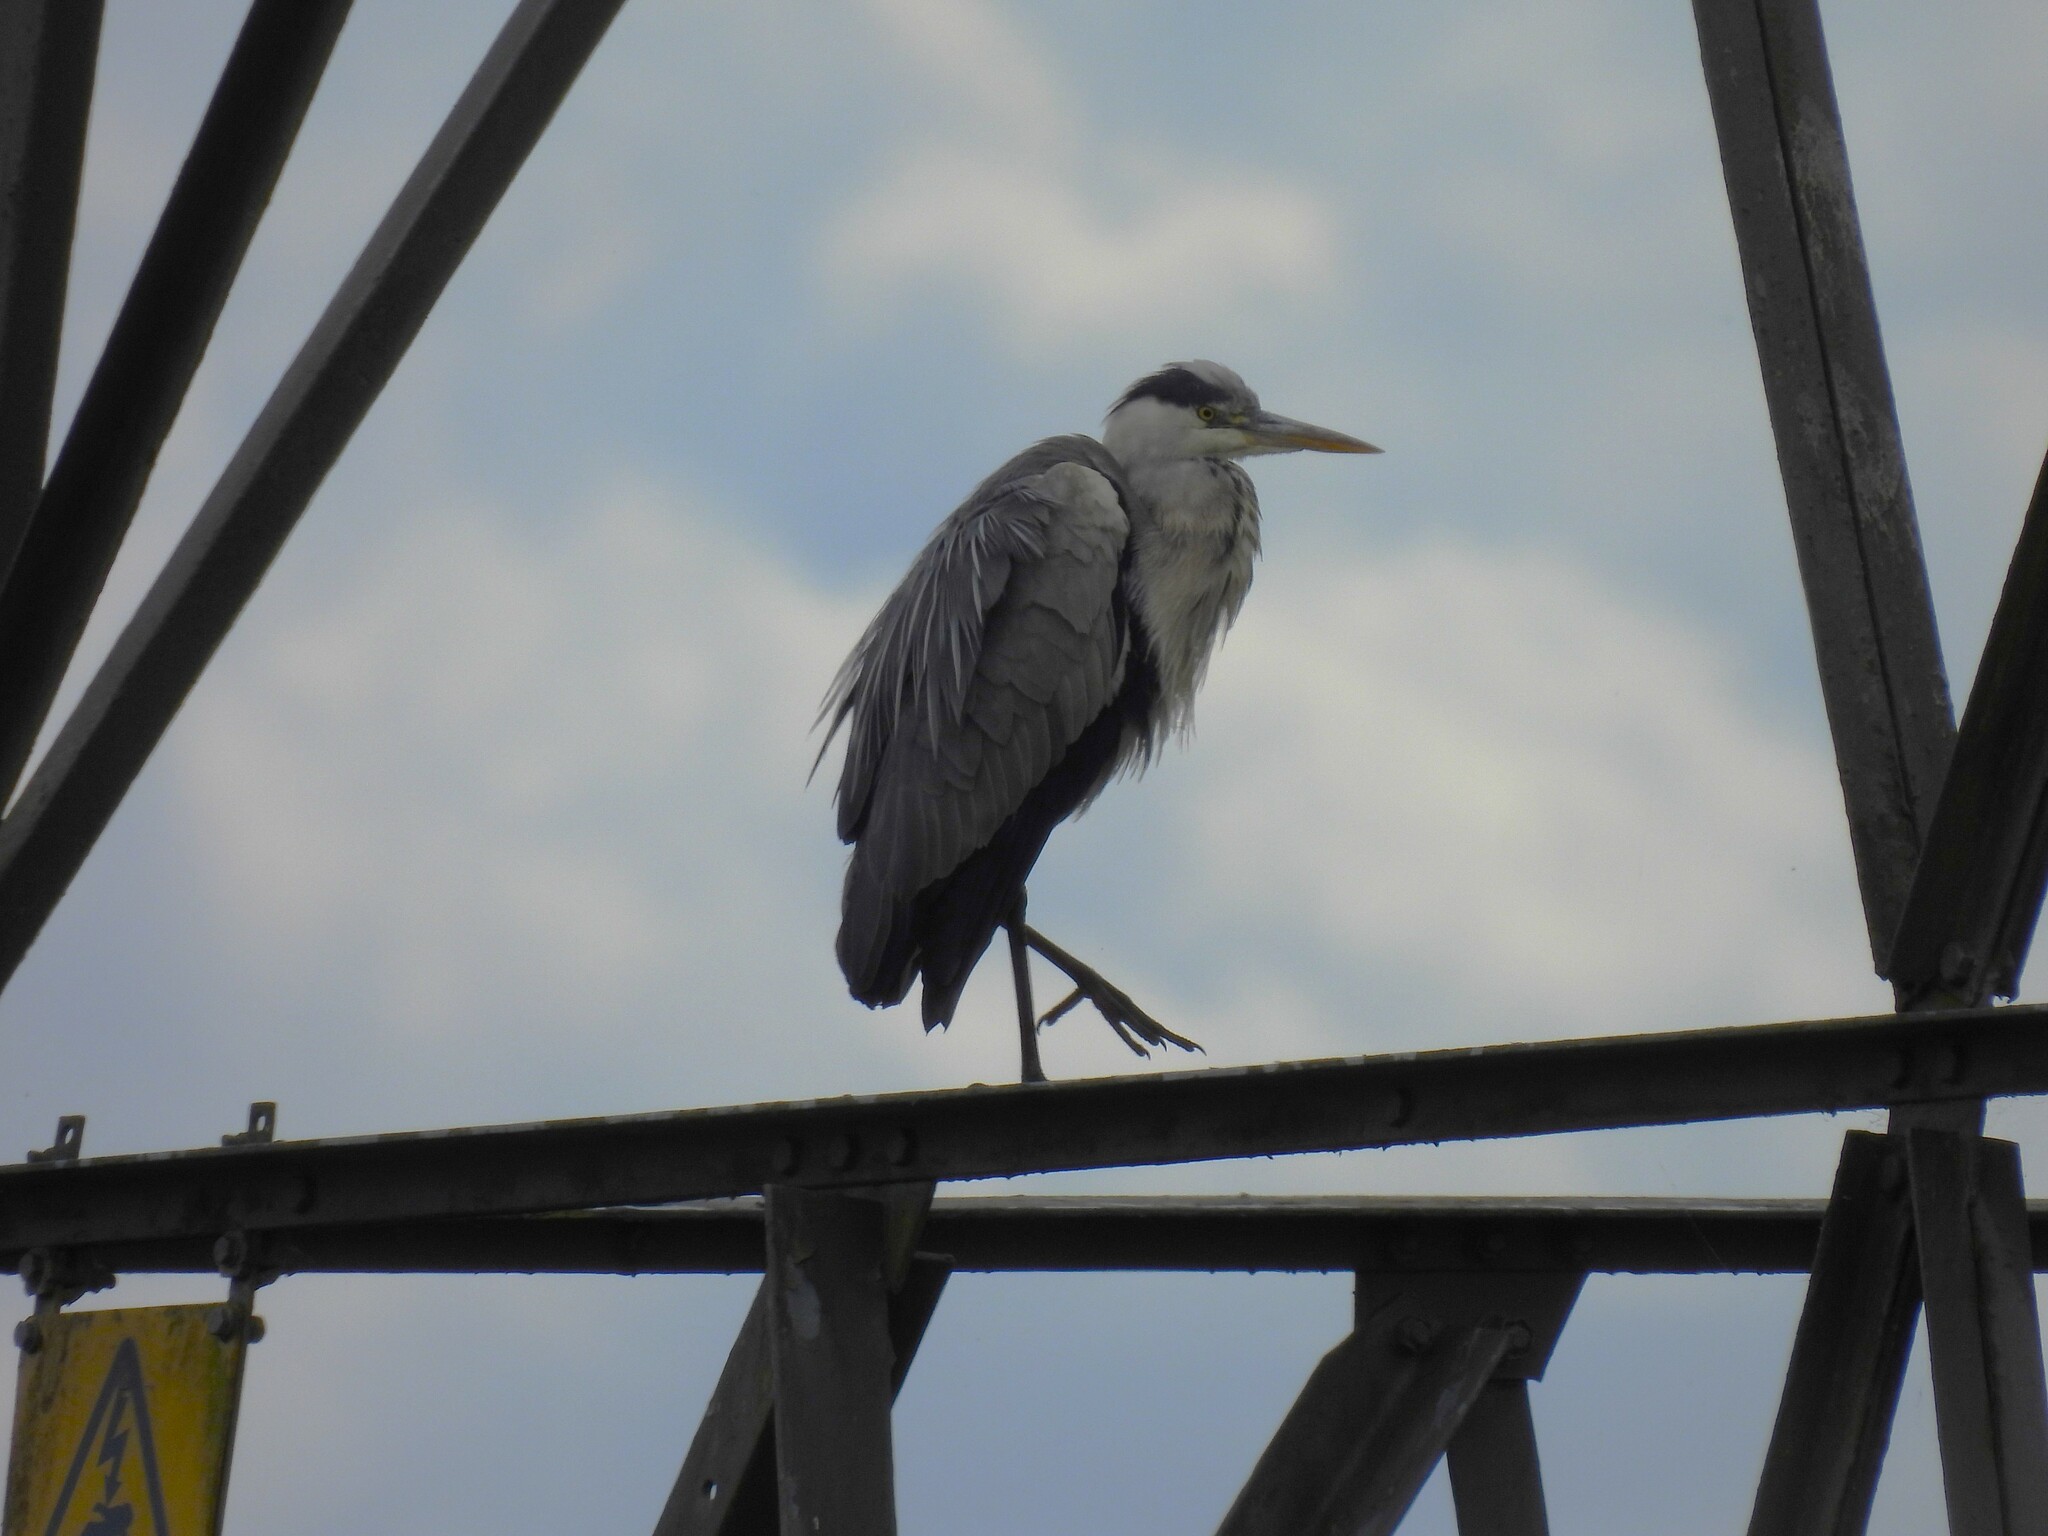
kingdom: Animalia
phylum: Chordata
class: Aves
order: Pelecaniformes
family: Ardeidae
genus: Ardea
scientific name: Ardea cinerea
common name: Grey heron
